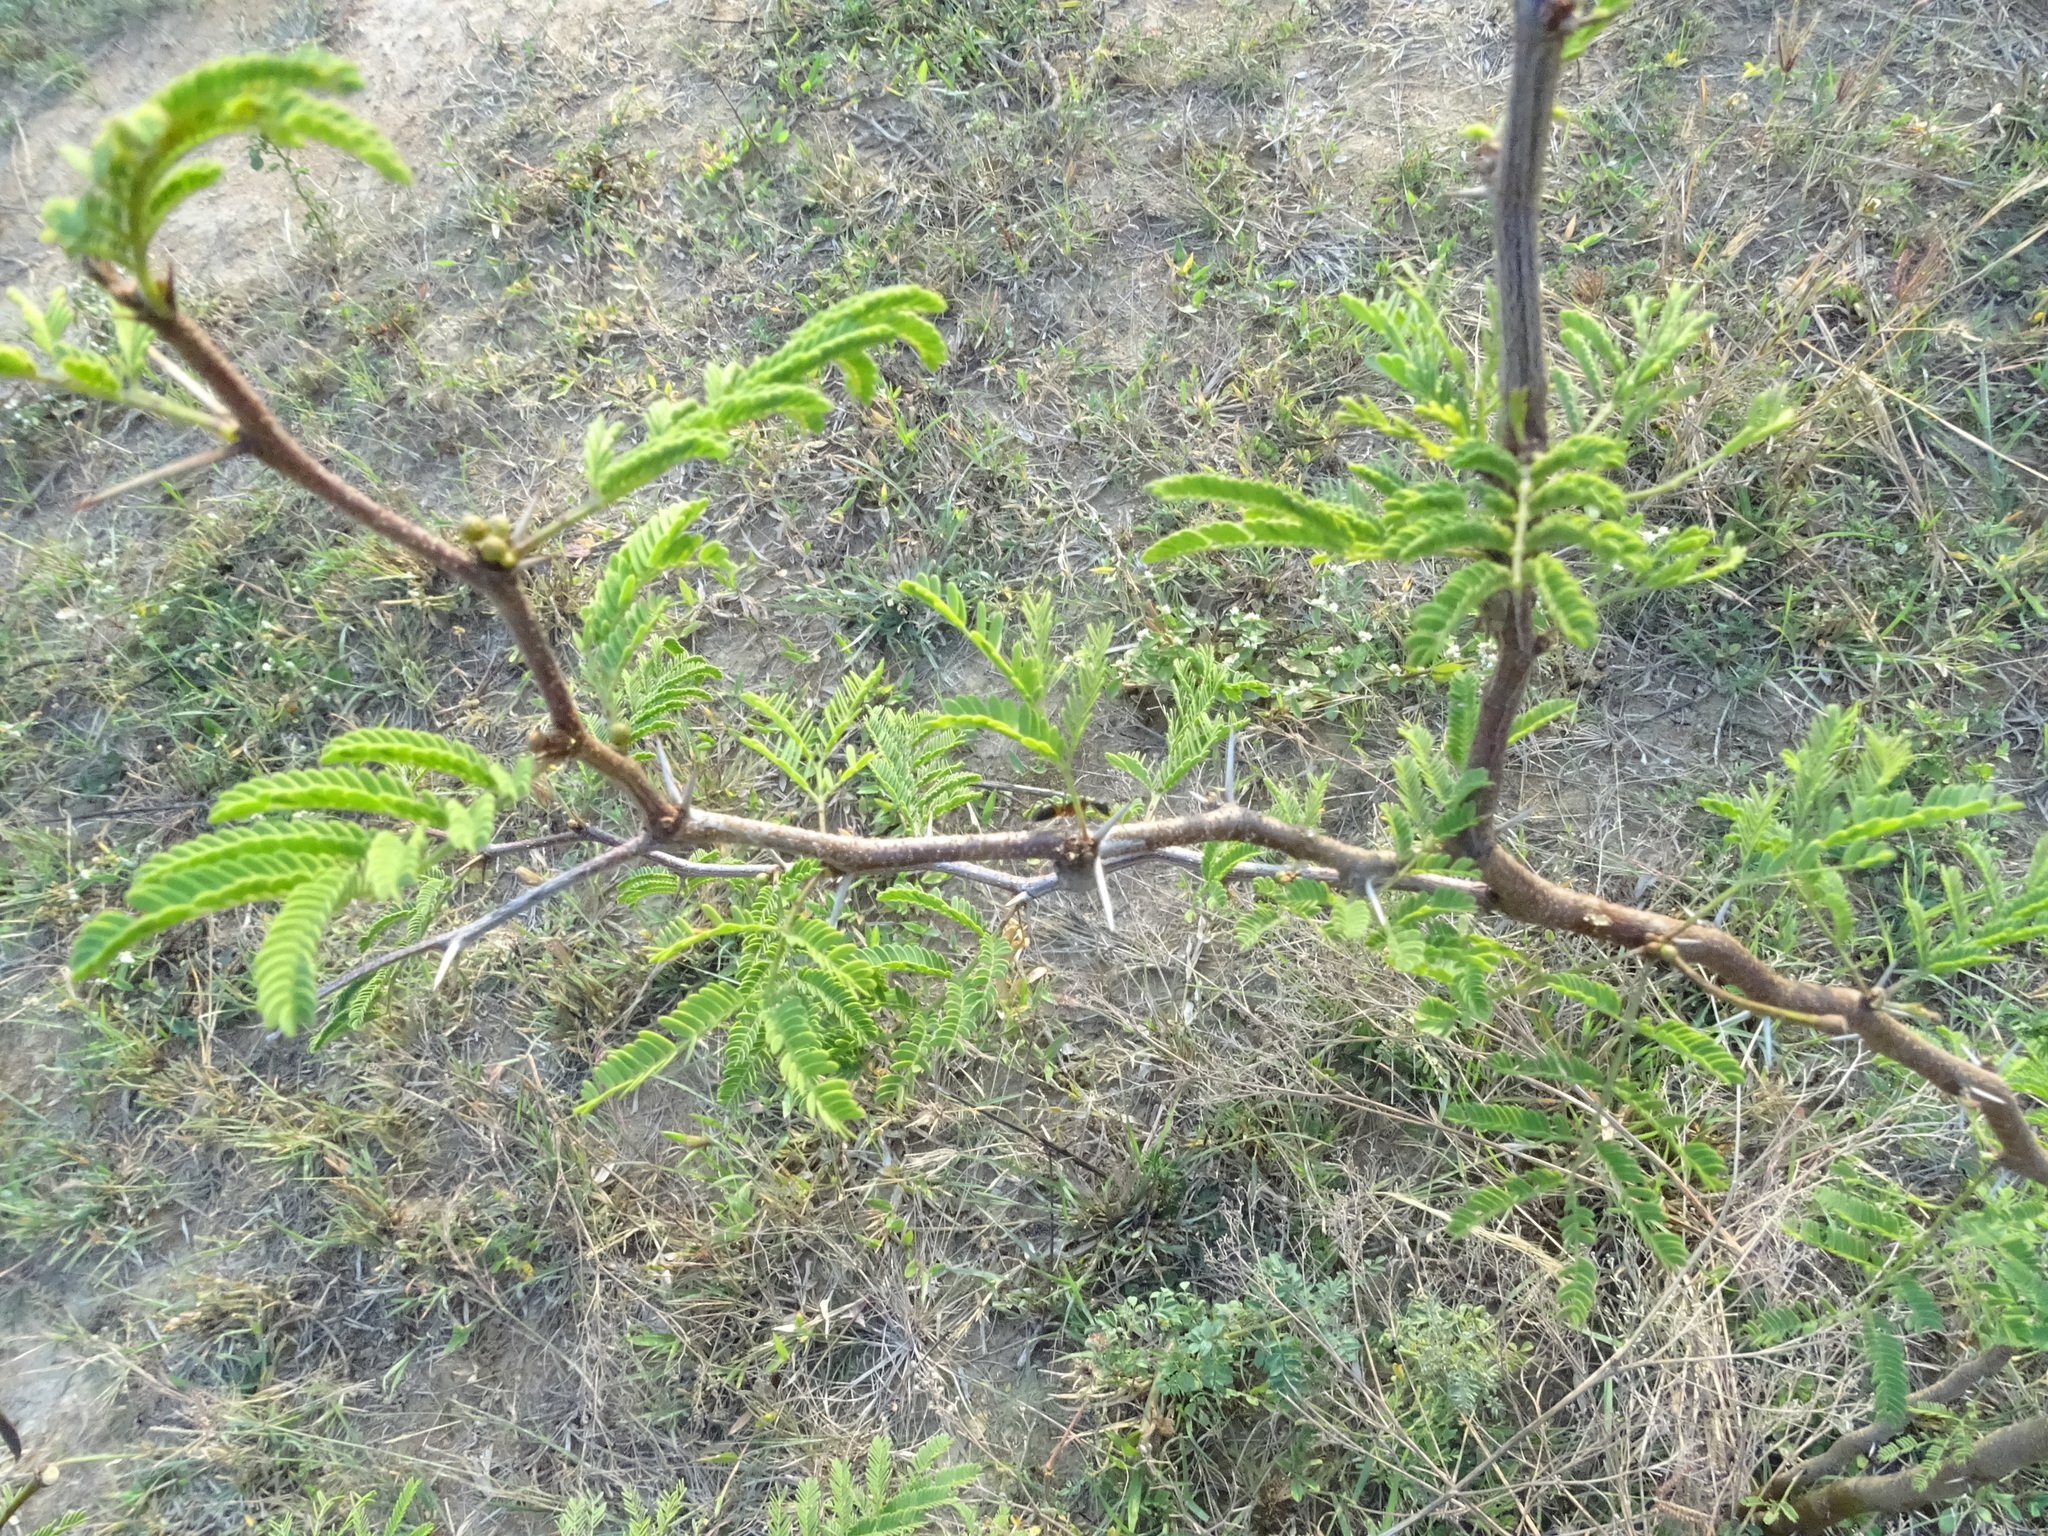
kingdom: Plantae
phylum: Tracheophyta
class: Magnoliopsida
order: Fabales
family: Fabaceae
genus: Vachellia
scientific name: Vachellia farnesiana
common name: Sweet acacia
